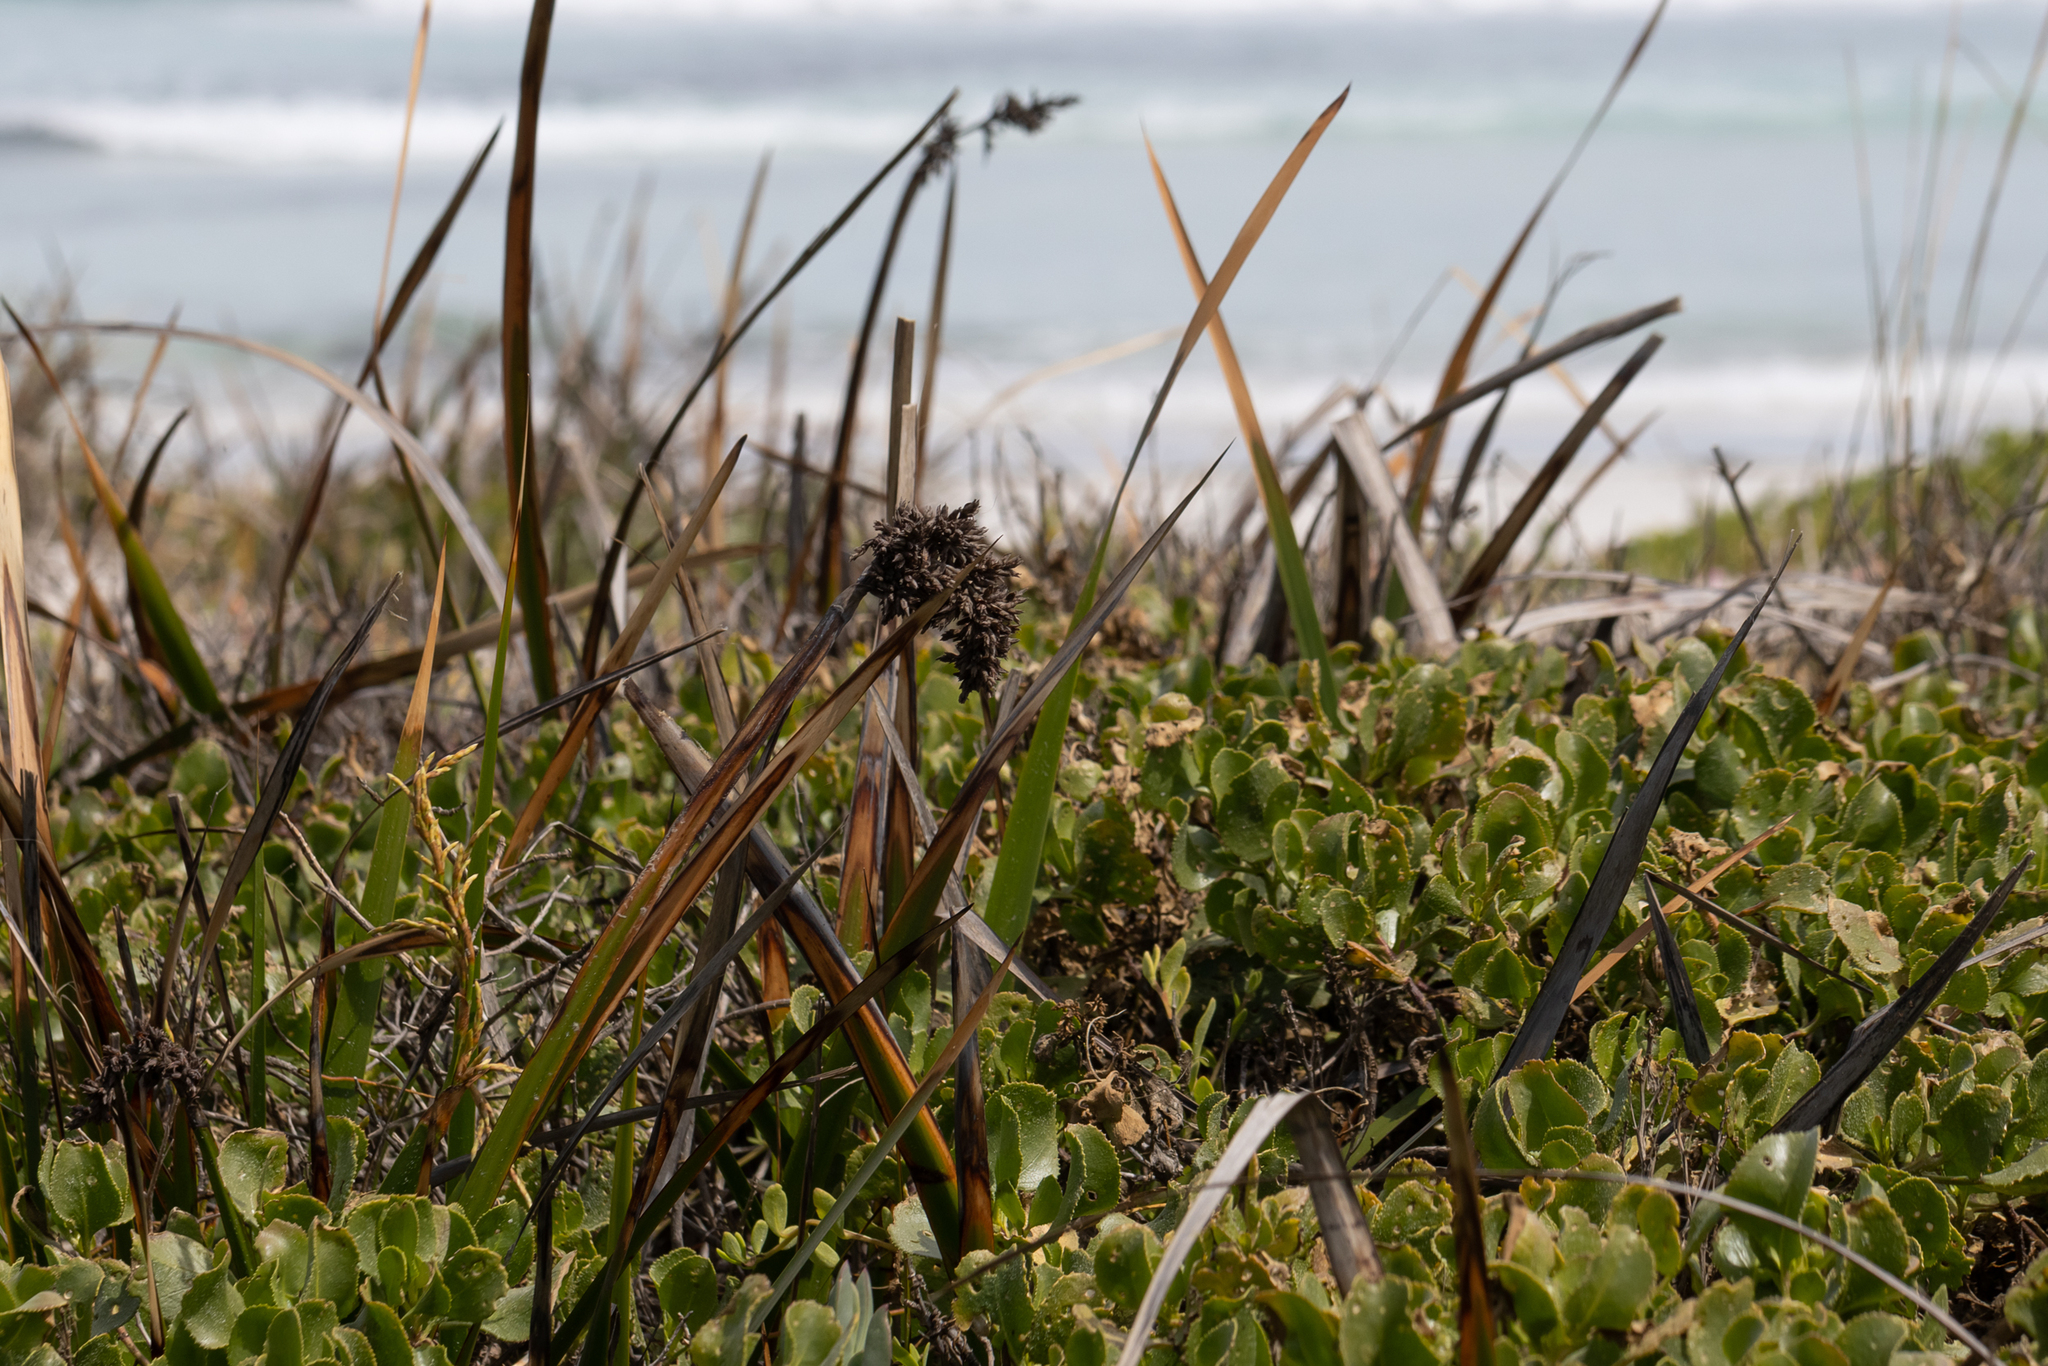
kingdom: Plantae
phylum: Tracheophyta
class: Liliopsida
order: Poales
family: Cyperaceae
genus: Lepidosperma
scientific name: Lepidosperma gladiatum
